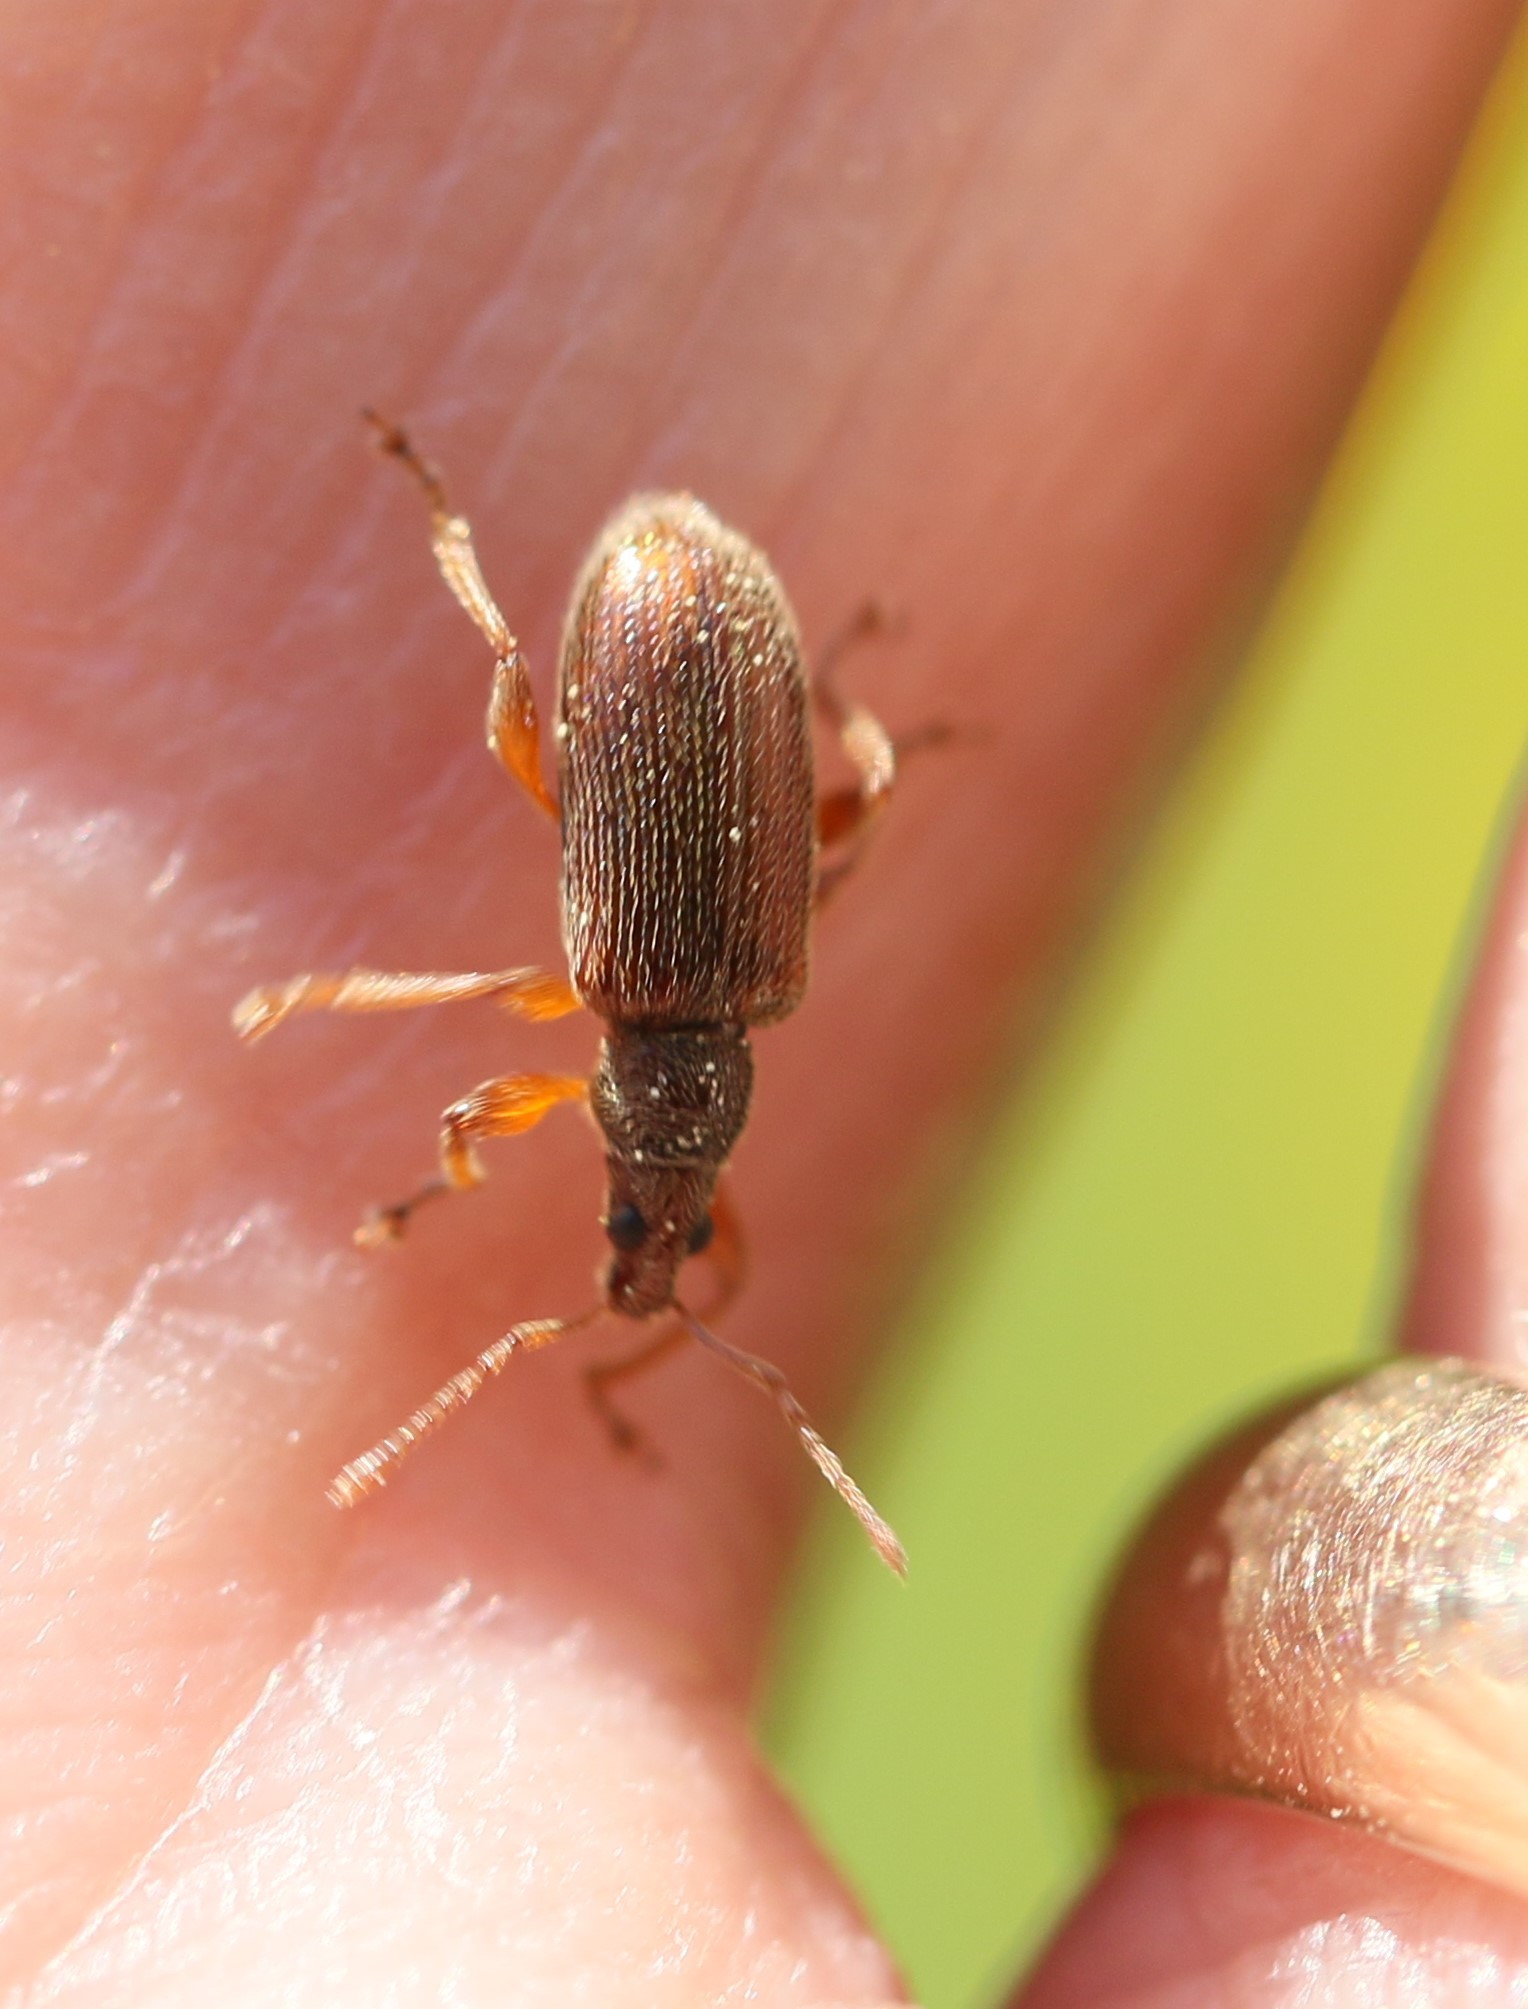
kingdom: Animalia
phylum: Arthropoda
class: Insecta
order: Coleoptera
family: Curculionidae
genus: Phyllobius
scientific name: Phyllobius oblongus
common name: Brown leaf weevil
